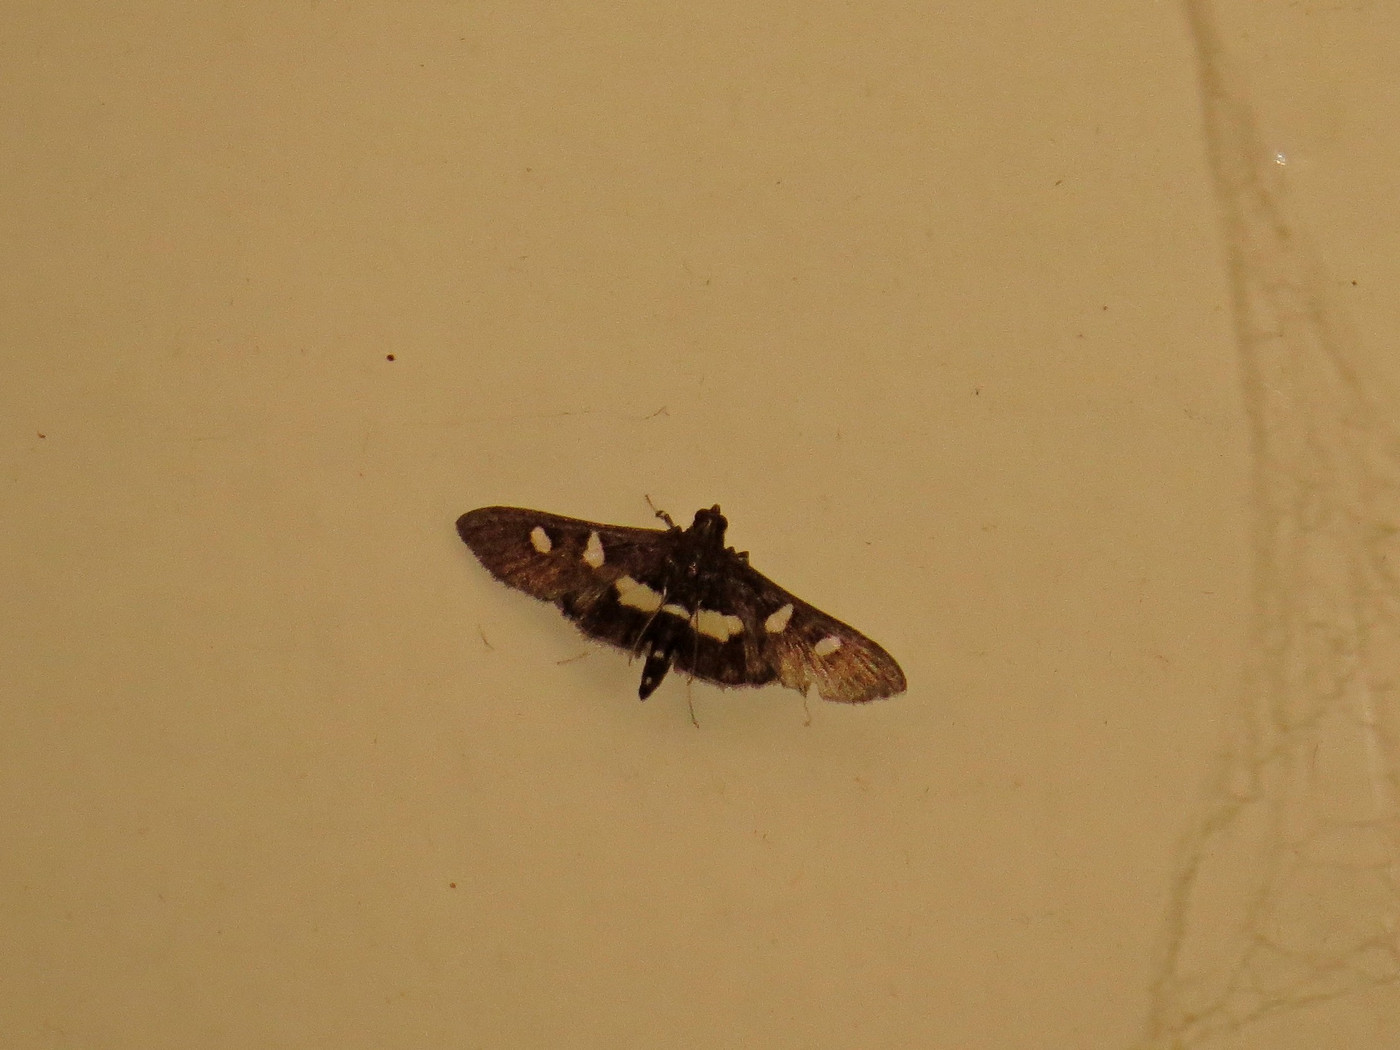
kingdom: Animalia
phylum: Arthropoda
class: Insecta
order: Lepidoptera
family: Crambidae
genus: Desmia
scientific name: Desmia
